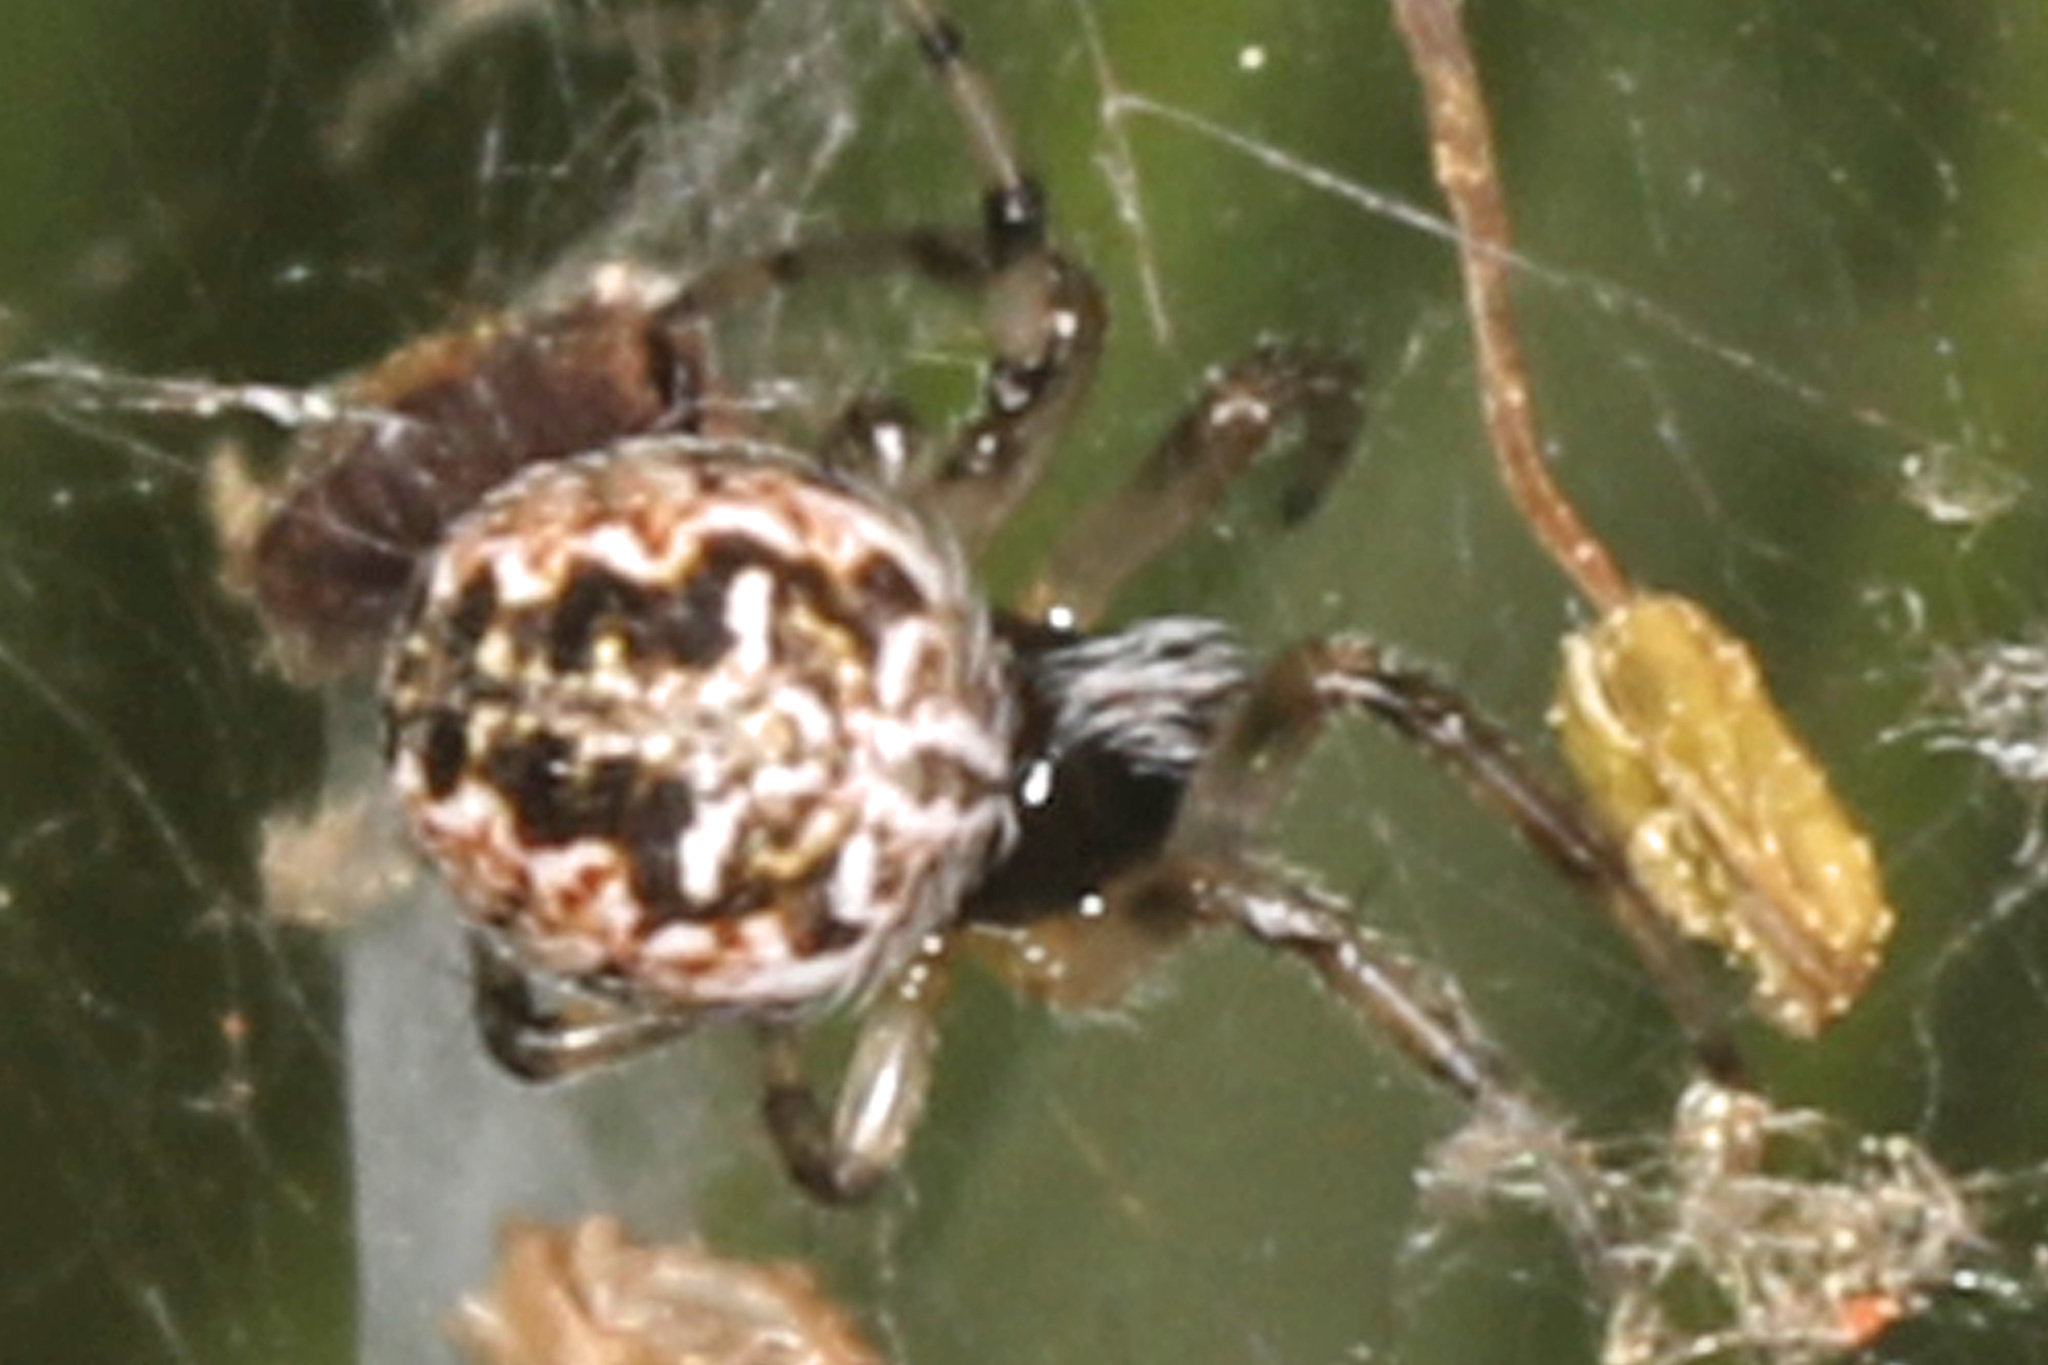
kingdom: Animalia
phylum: Arthropoda
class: Arachnida
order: Araneae
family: Araneidae
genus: Metepeira
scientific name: Metepeira labyrinthea
